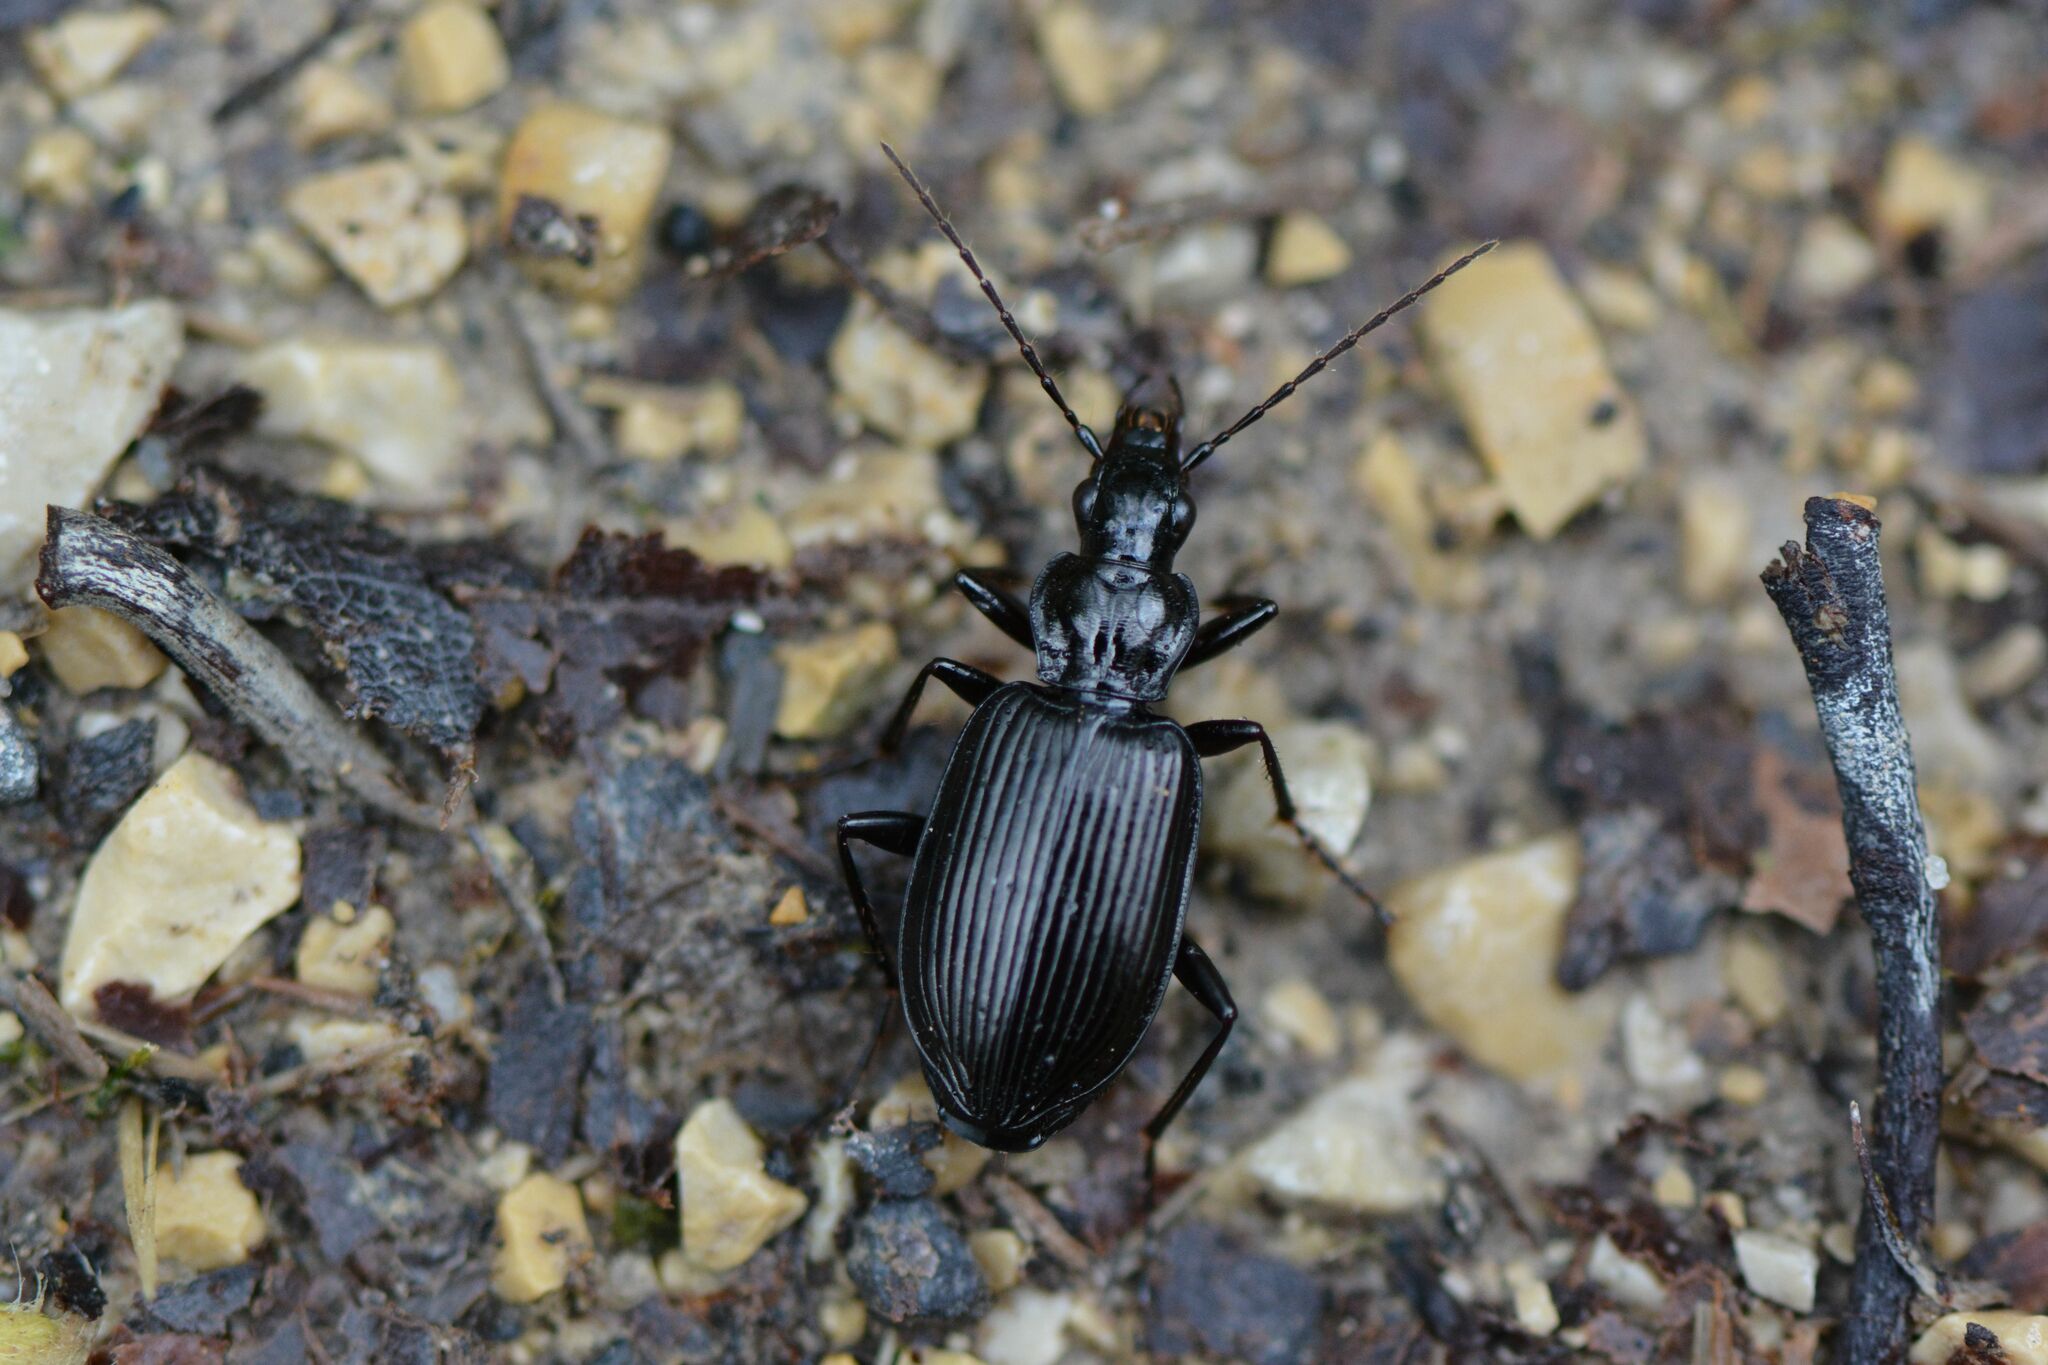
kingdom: Animalia
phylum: Arthropoda
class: Insecta
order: Coleoptera
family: Carabidae
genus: Platynus
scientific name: Platynus assimilis
